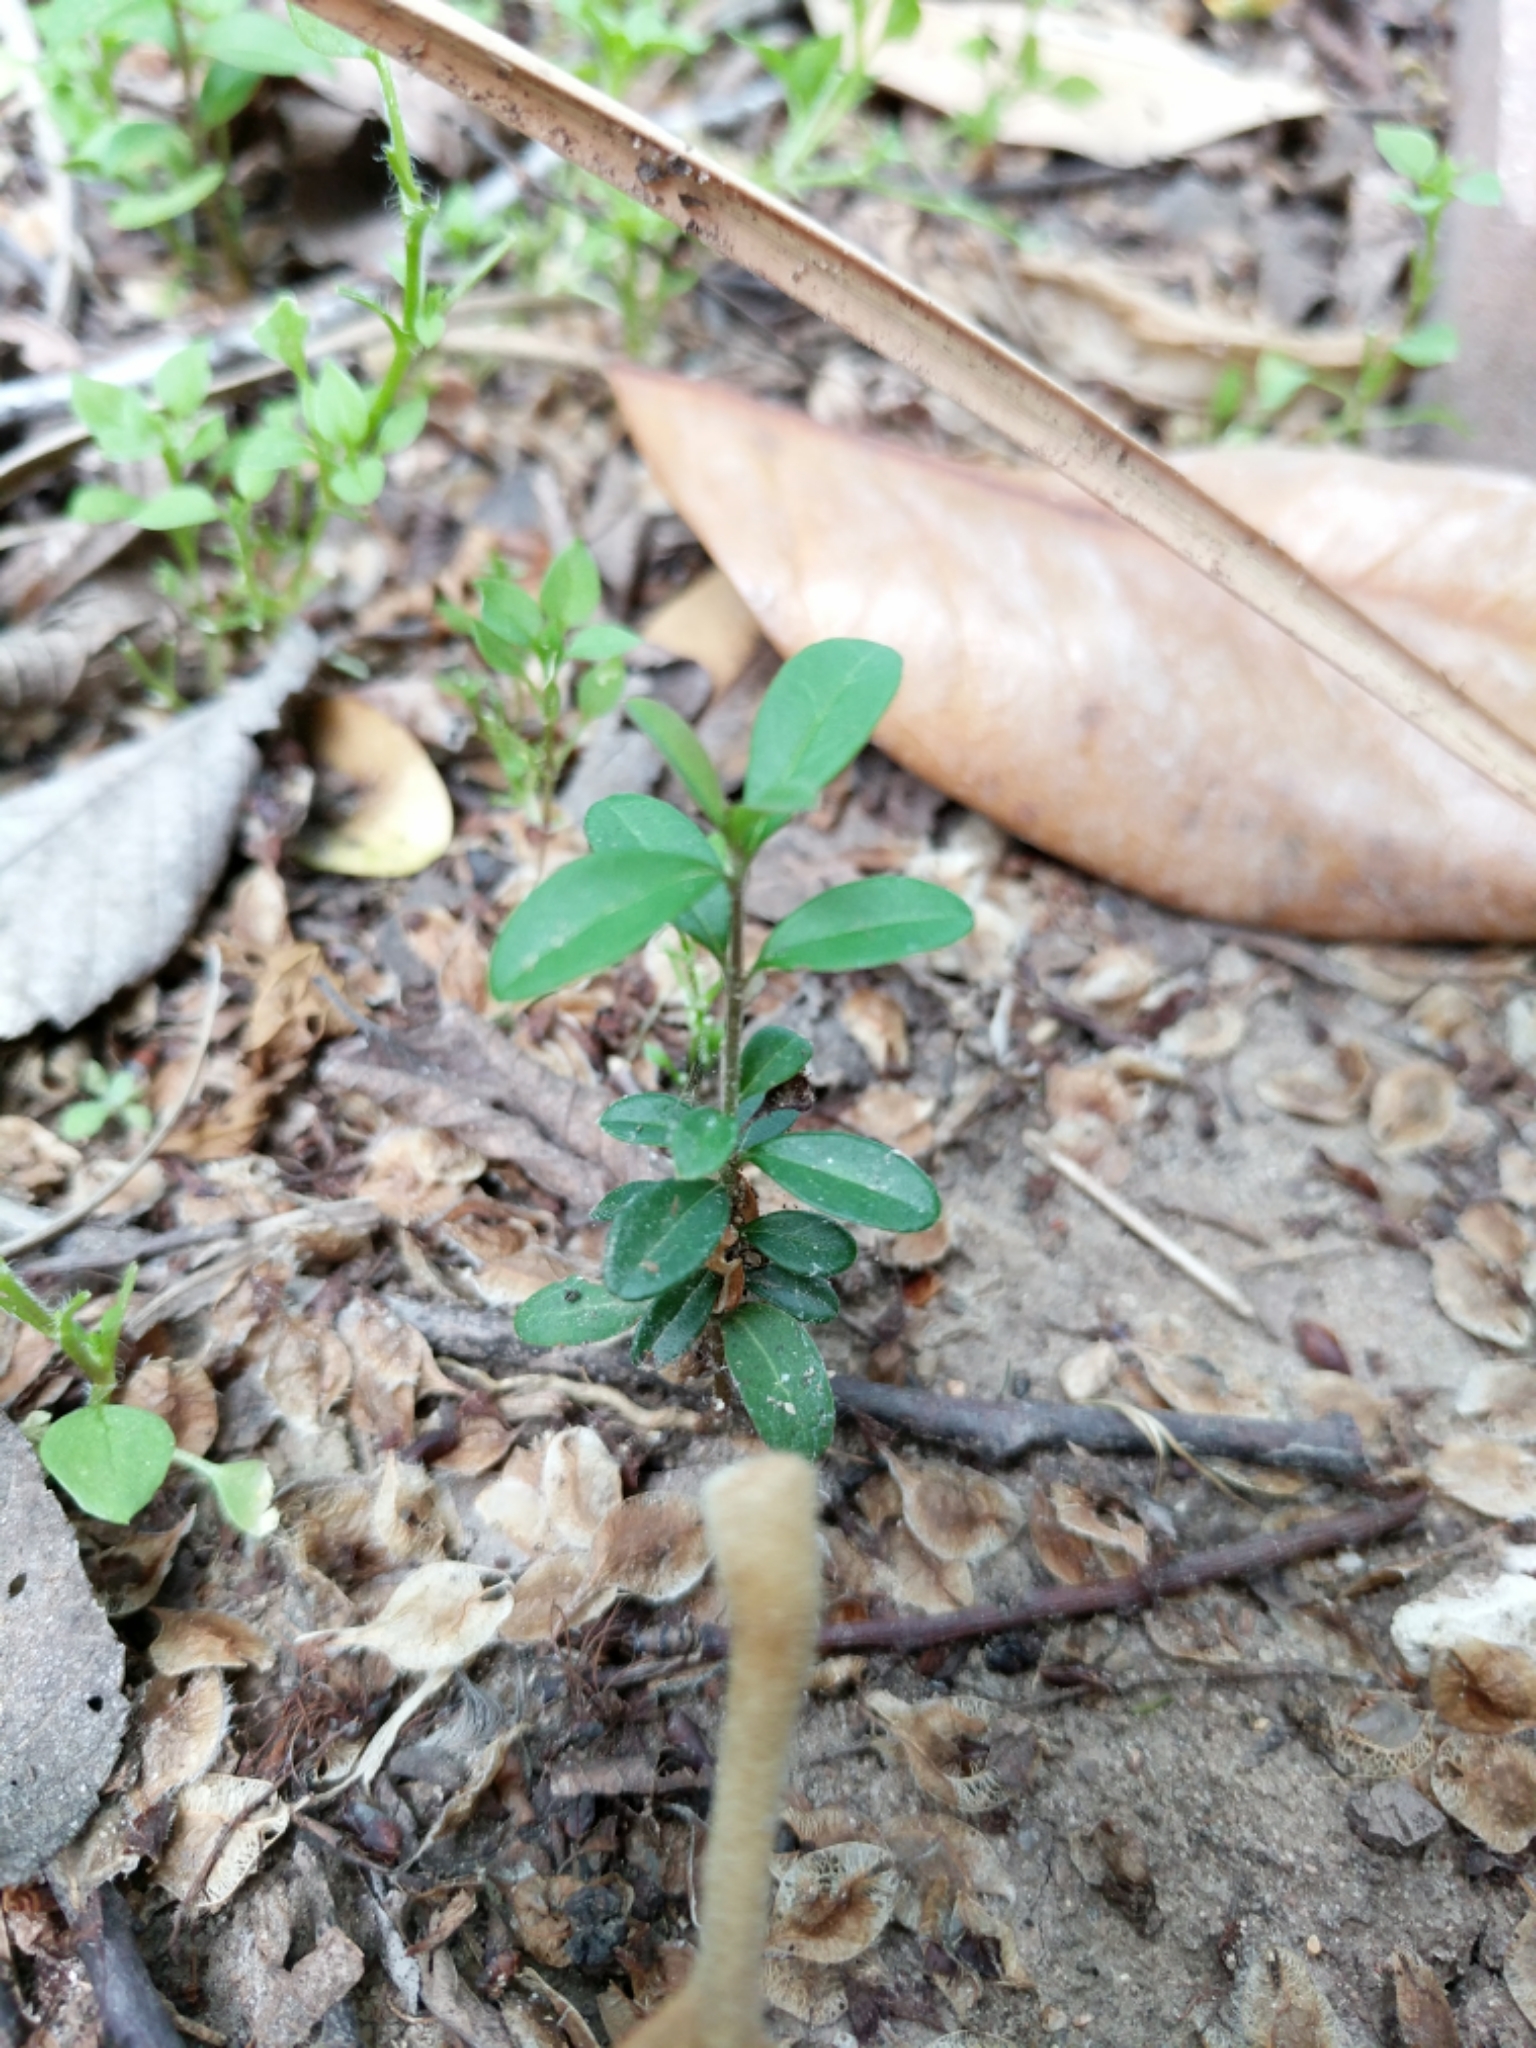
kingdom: Plantae
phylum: Tracheophyta
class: Magnoliopsida
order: Lamiales
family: Oleaceae
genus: Ligustrum
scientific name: Ligustrum quihoui
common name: Waxyleaf privet
